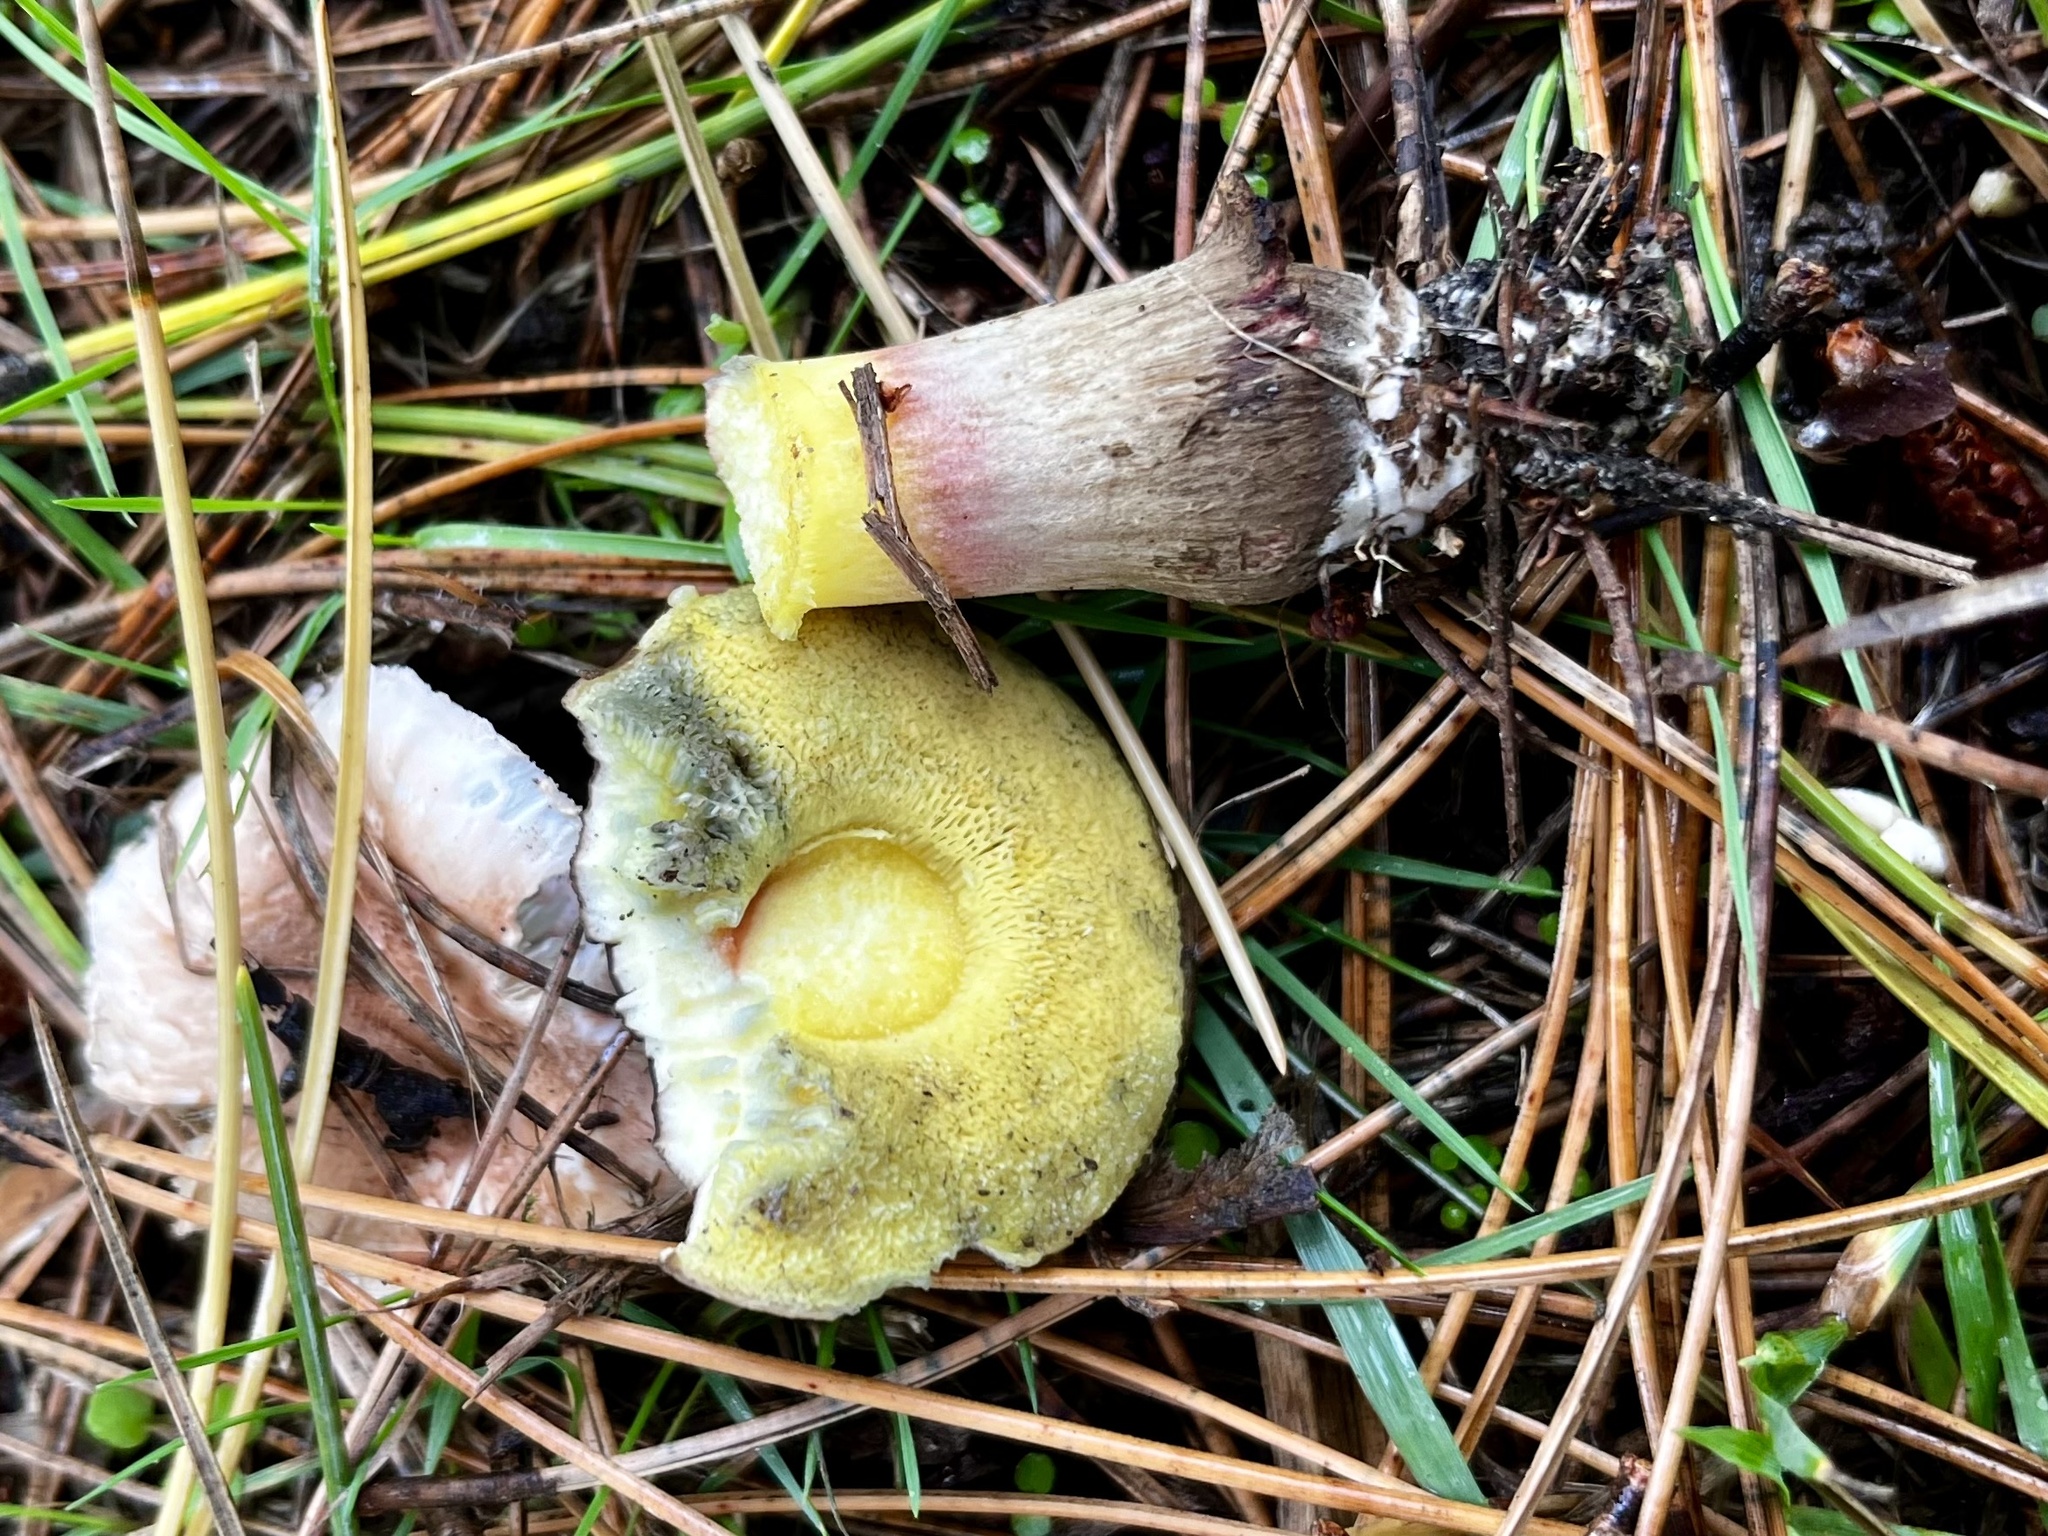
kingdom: Fungi
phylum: Basidiomycota
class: Agaricomycetes
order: Boletales
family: Boletaceae
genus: Xerocomellus
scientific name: Xerocomellus pruinatus
